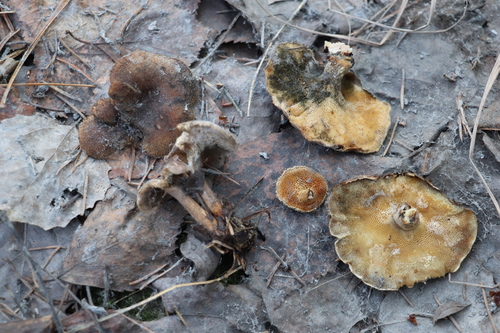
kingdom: Fungi
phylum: Basidiomycota
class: Agaricomycetes
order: Polyporales
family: Polyporaceae
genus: Lentinus
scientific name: Lentinus brumalis
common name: Winter polypore
